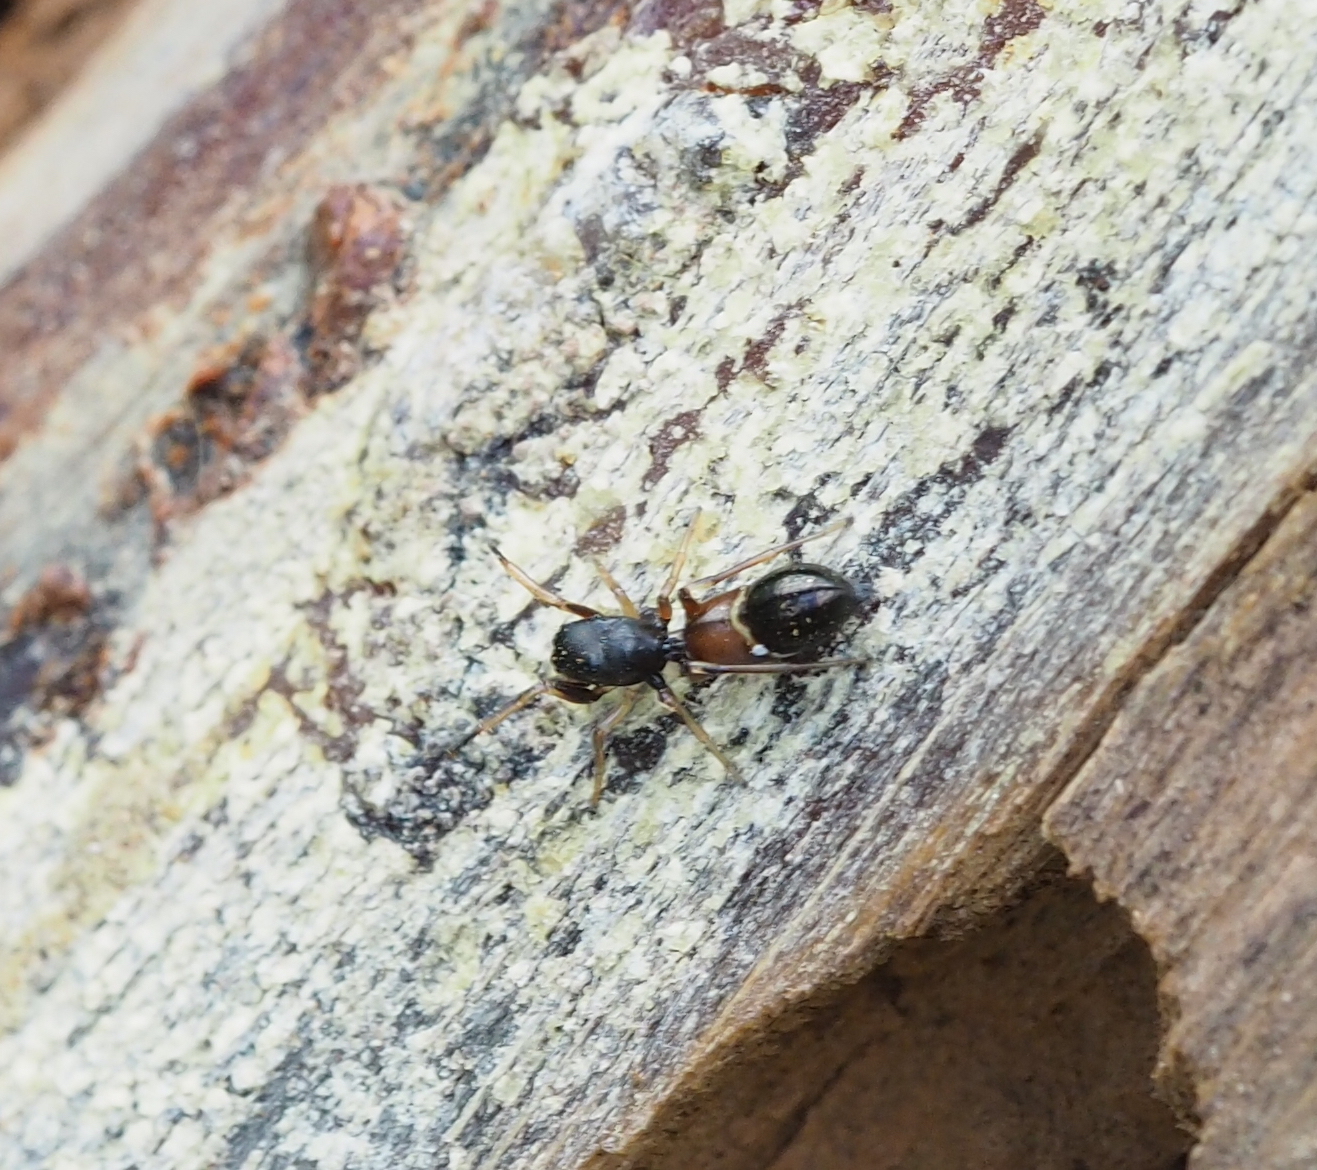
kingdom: Animalia
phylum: Arthropoda
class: Arachnida
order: Araneae
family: Salticidae
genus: Leptorchestes
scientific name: Leptorchestes berolinensis
